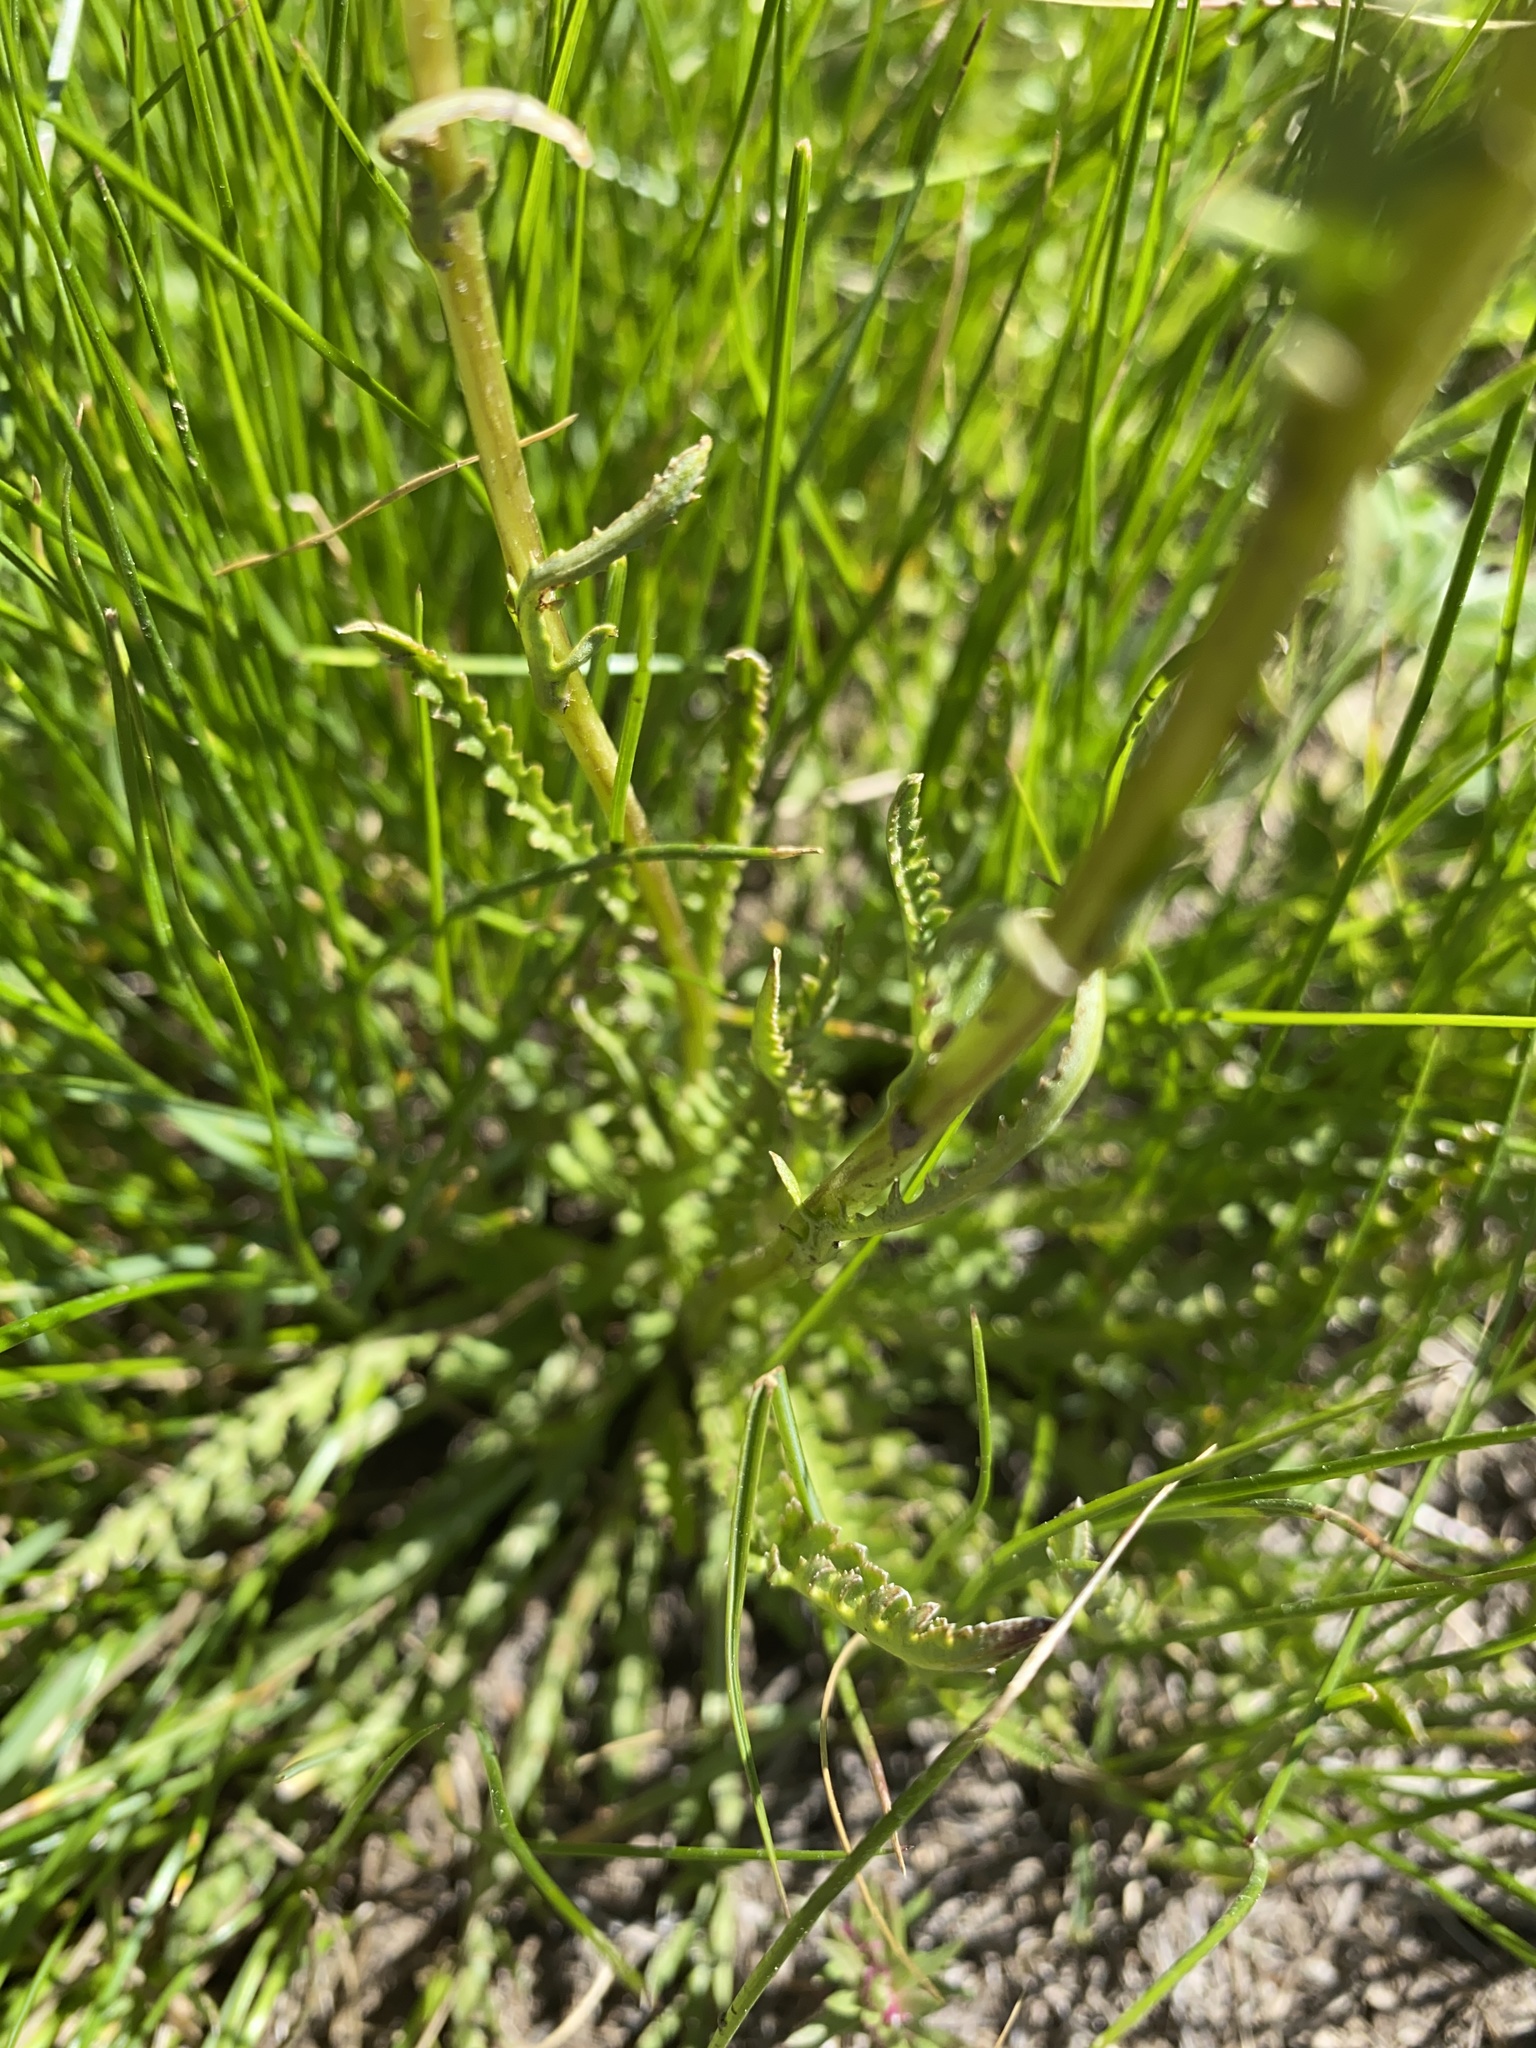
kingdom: Plantae
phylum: Tracheophyta
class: Magnoliopsida
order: Lamiales
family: Orobanchaceae
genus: Pedicularis
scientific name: Pedicularis attollens
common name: Slender pedicularis
